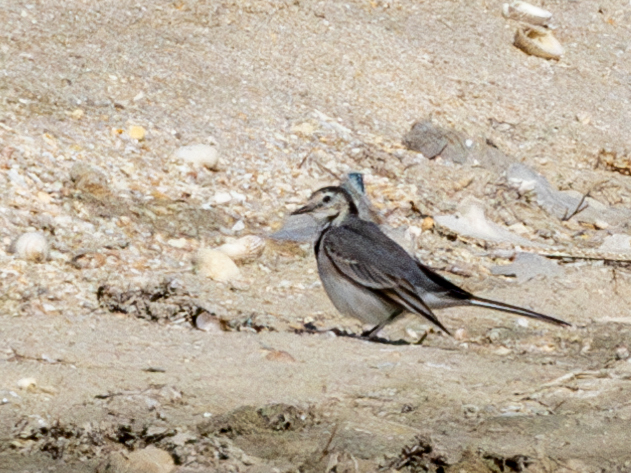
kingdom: Animalia
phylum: Chordata
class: Aves
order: Passeriformes
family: Motacillidae
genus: Motacilla
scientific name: Motacilla alba
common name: White wagtail
